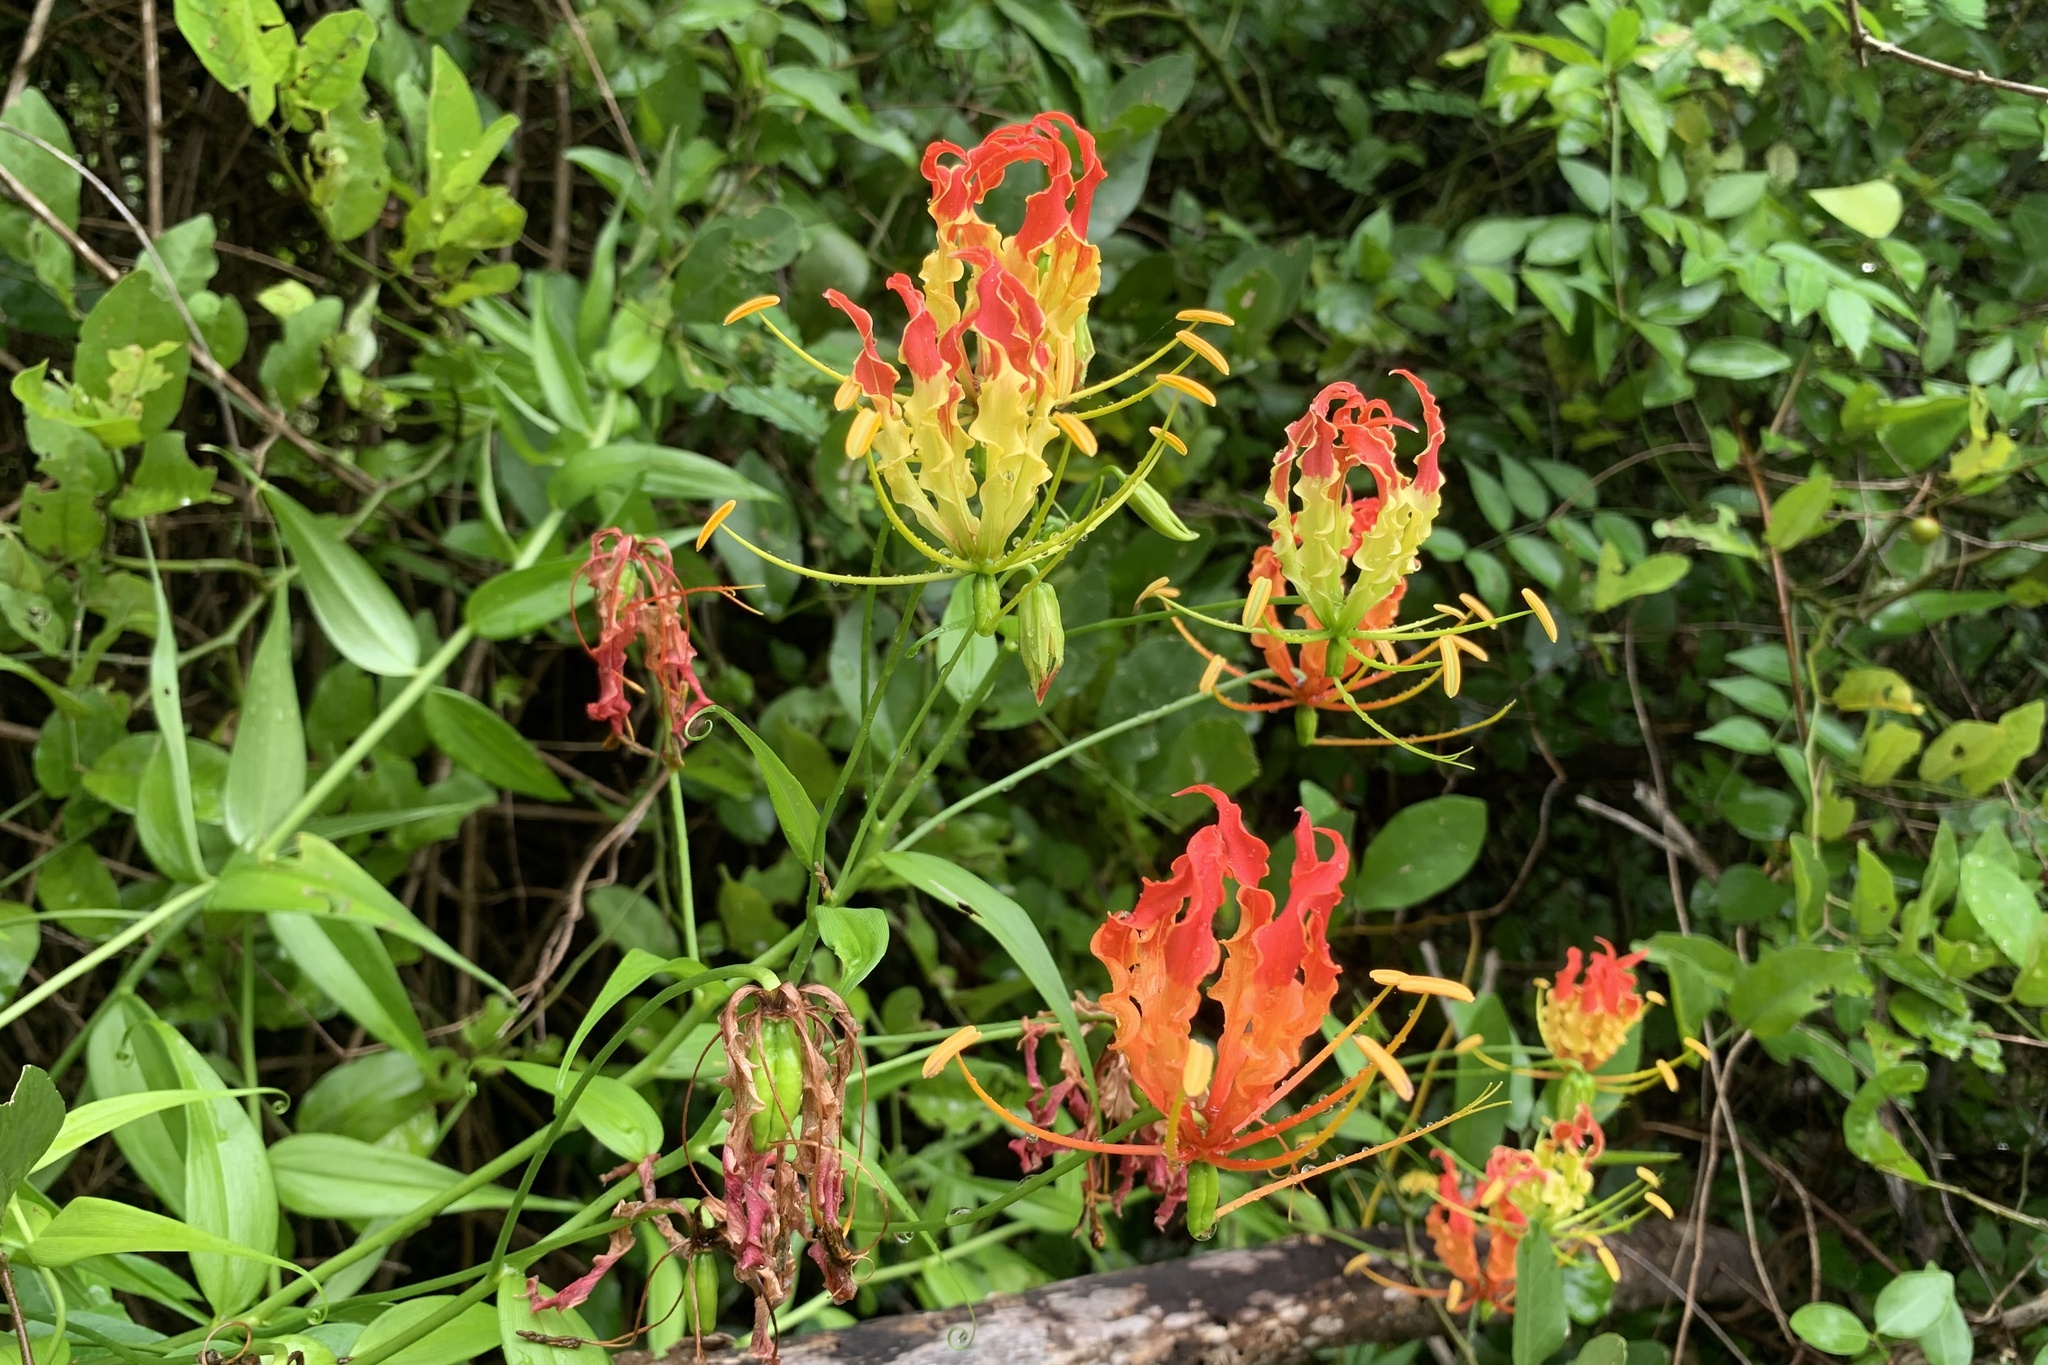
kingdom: Plantae
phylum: Tracheophyta
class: Liliopsida
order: Liliales
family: Colchicaceae
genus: Gloriosa
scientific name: Gloriosa superba
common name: Flame lily
